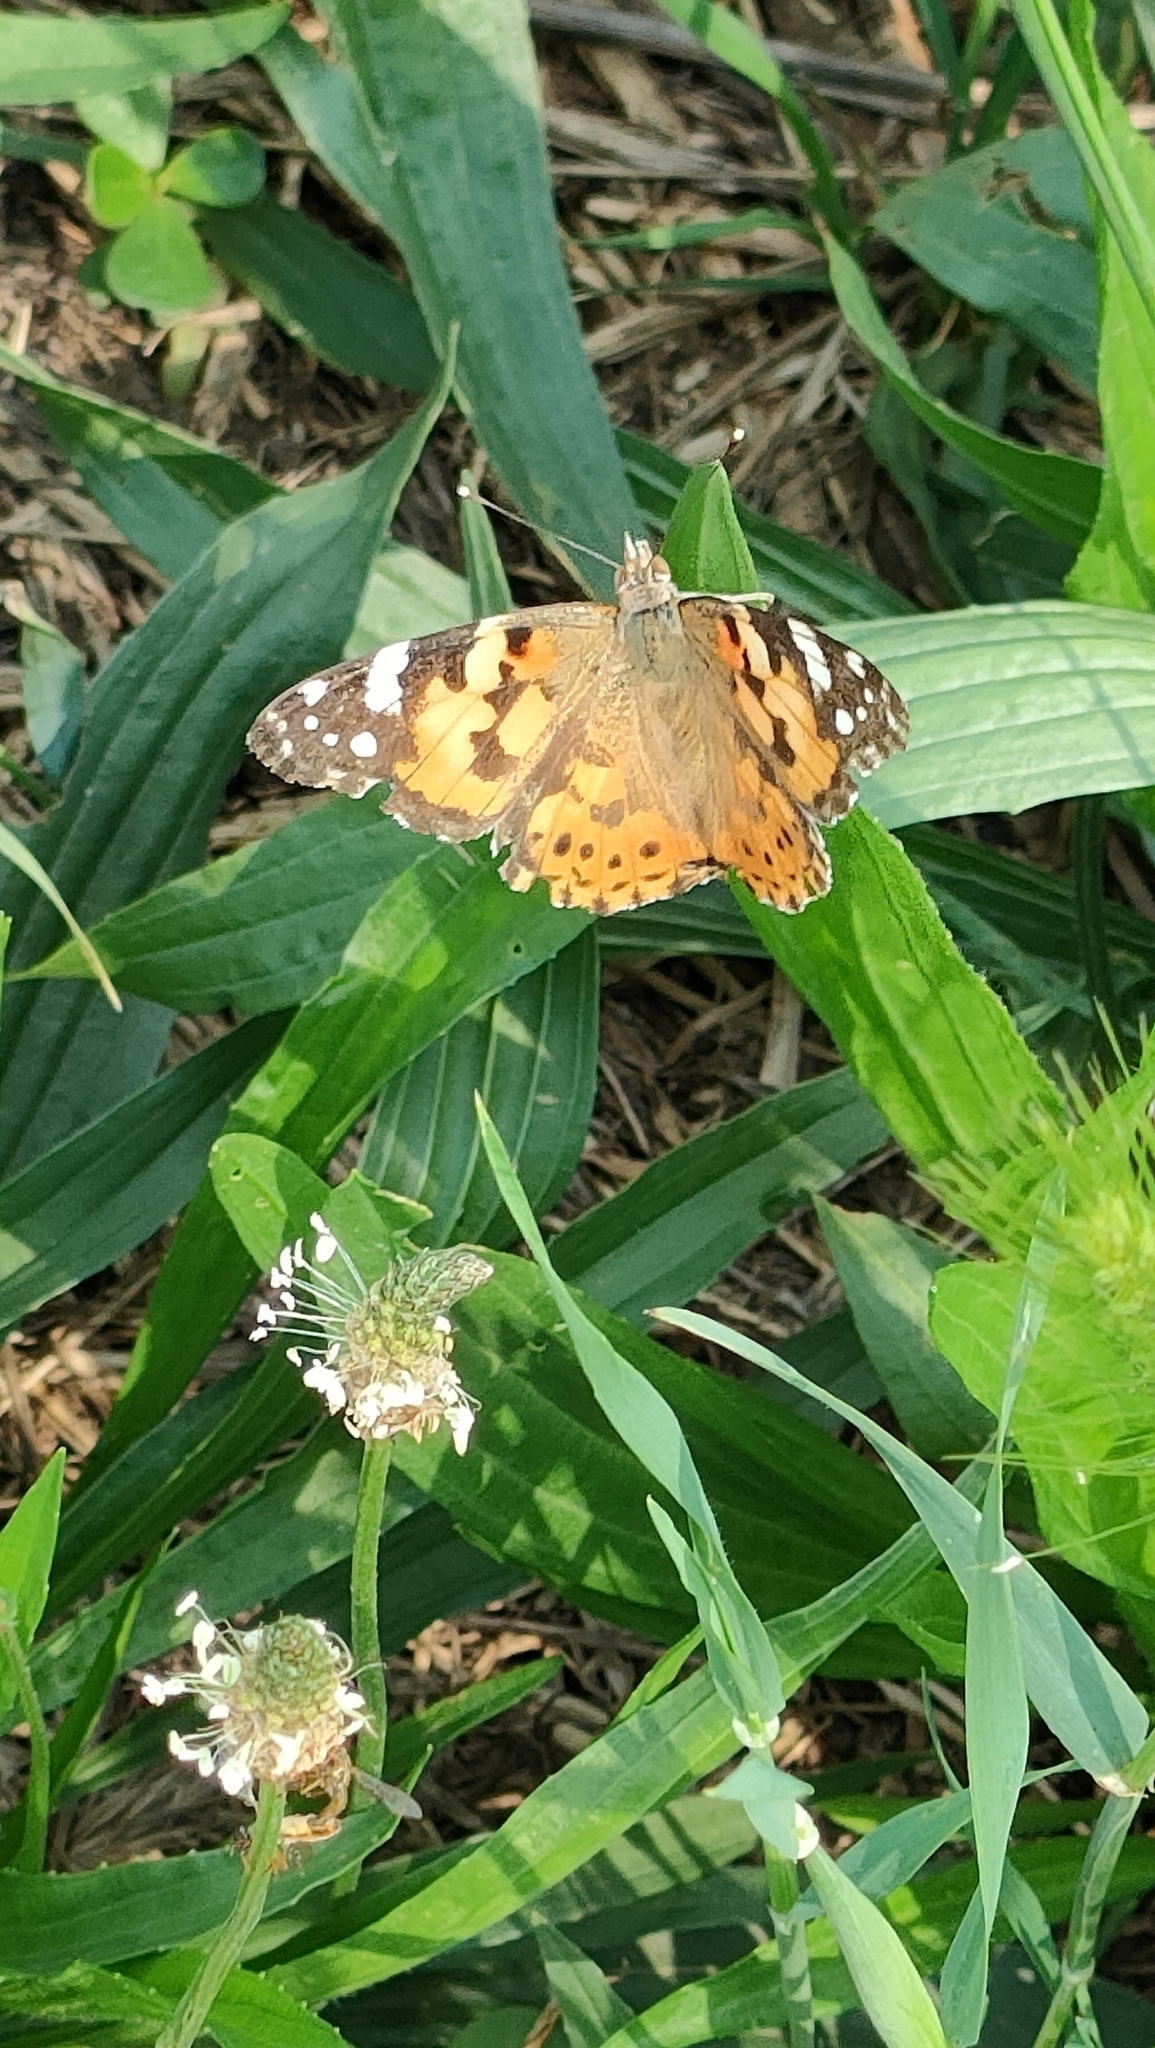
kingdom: Animalia
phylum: Arthropoda
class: Insecta
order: Lepidoptera
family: Nymphalidae
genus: Vanessa
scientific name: Vanessa cardui
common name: Painted lady
